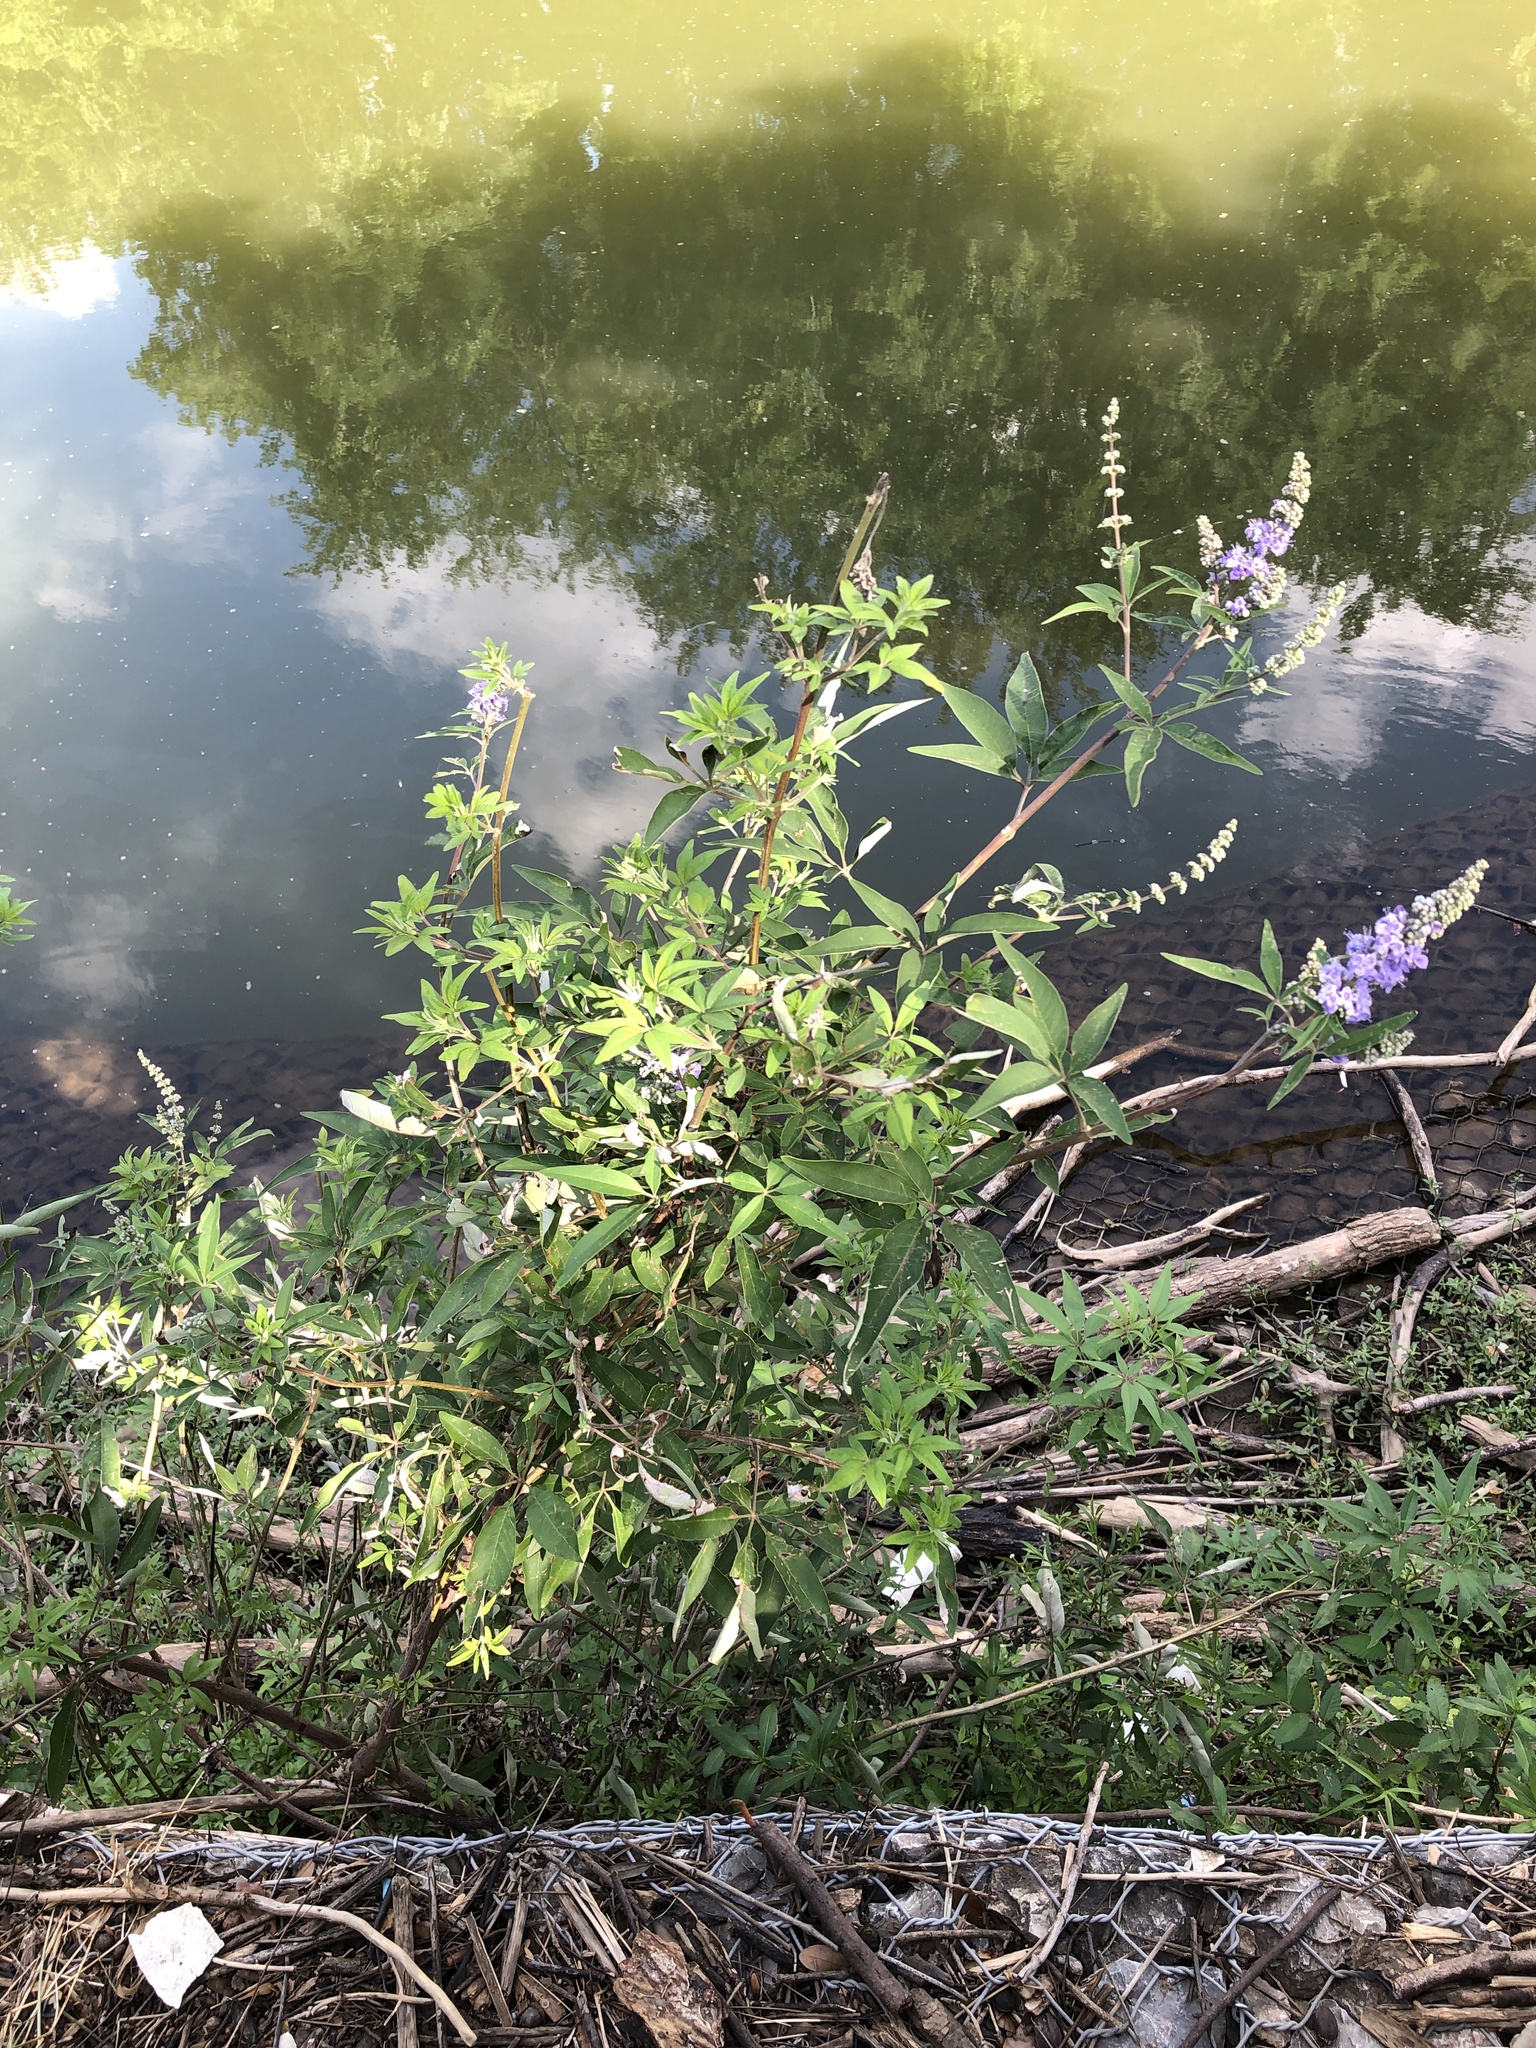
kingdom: Plantae
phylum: Tracheophyta
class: Magnoliopsida
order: Lamiales
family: Lamiaceae
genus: Vitex
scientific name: Vitex agnus-castus
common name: Chasteberry
